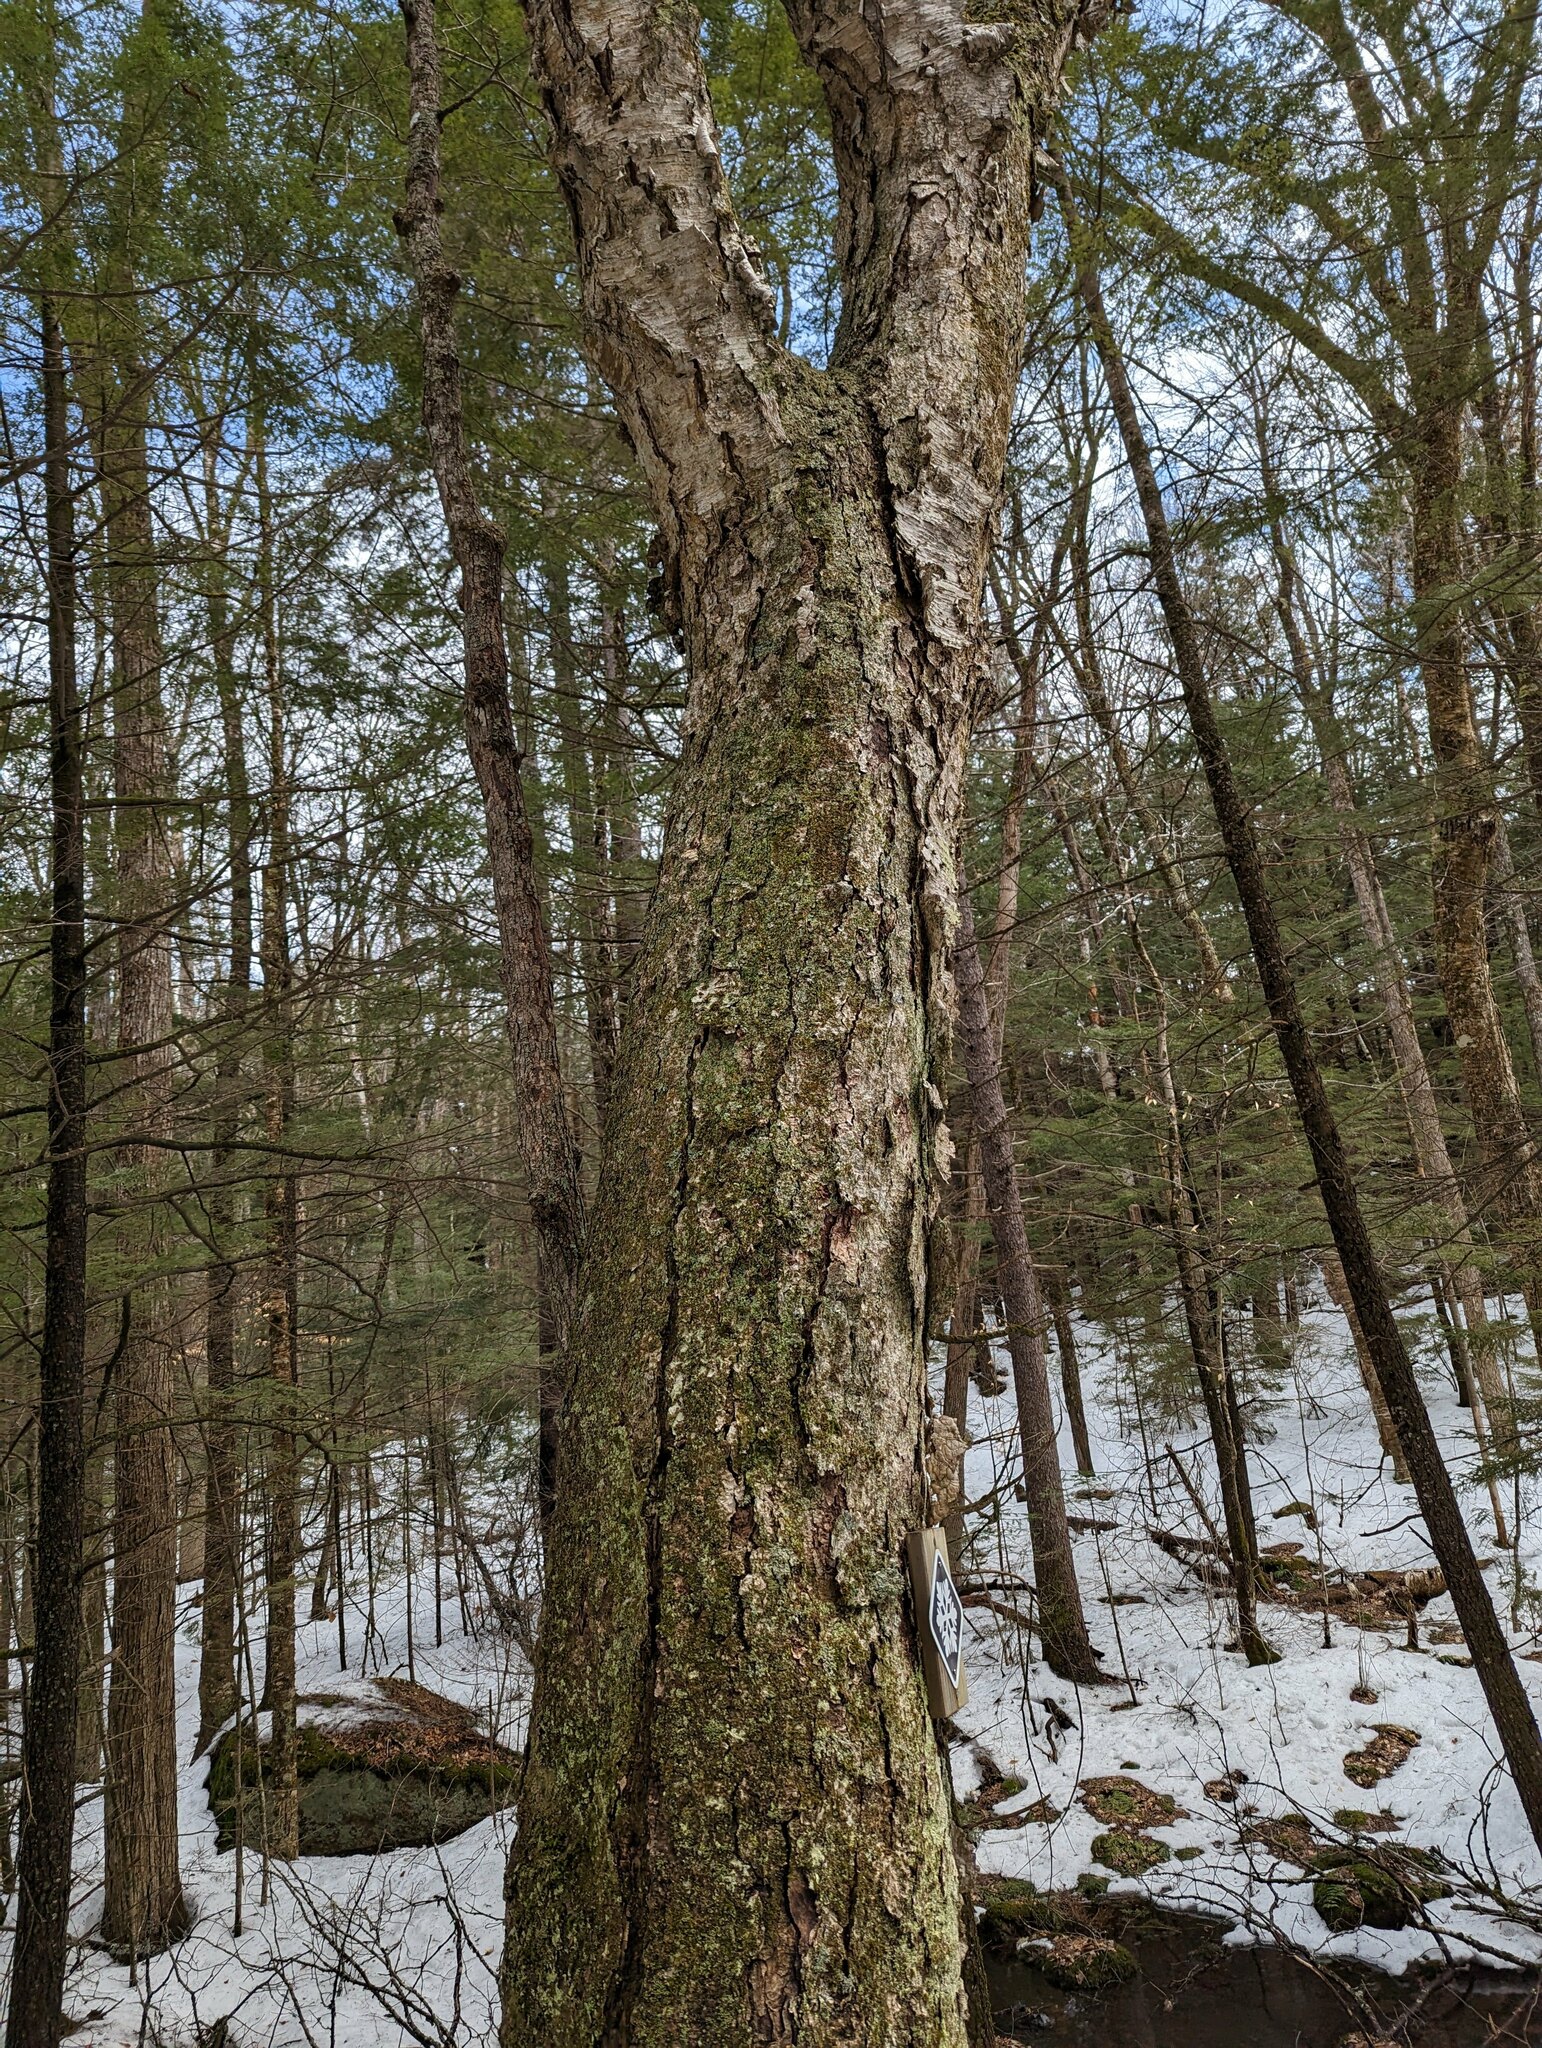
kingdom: Plantae
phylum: Tracheophyta
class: Magnoliopsida
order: Fagales
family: Betulaceae
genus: Betula
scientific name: Betula alleghaniensis
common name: Yellow birch
